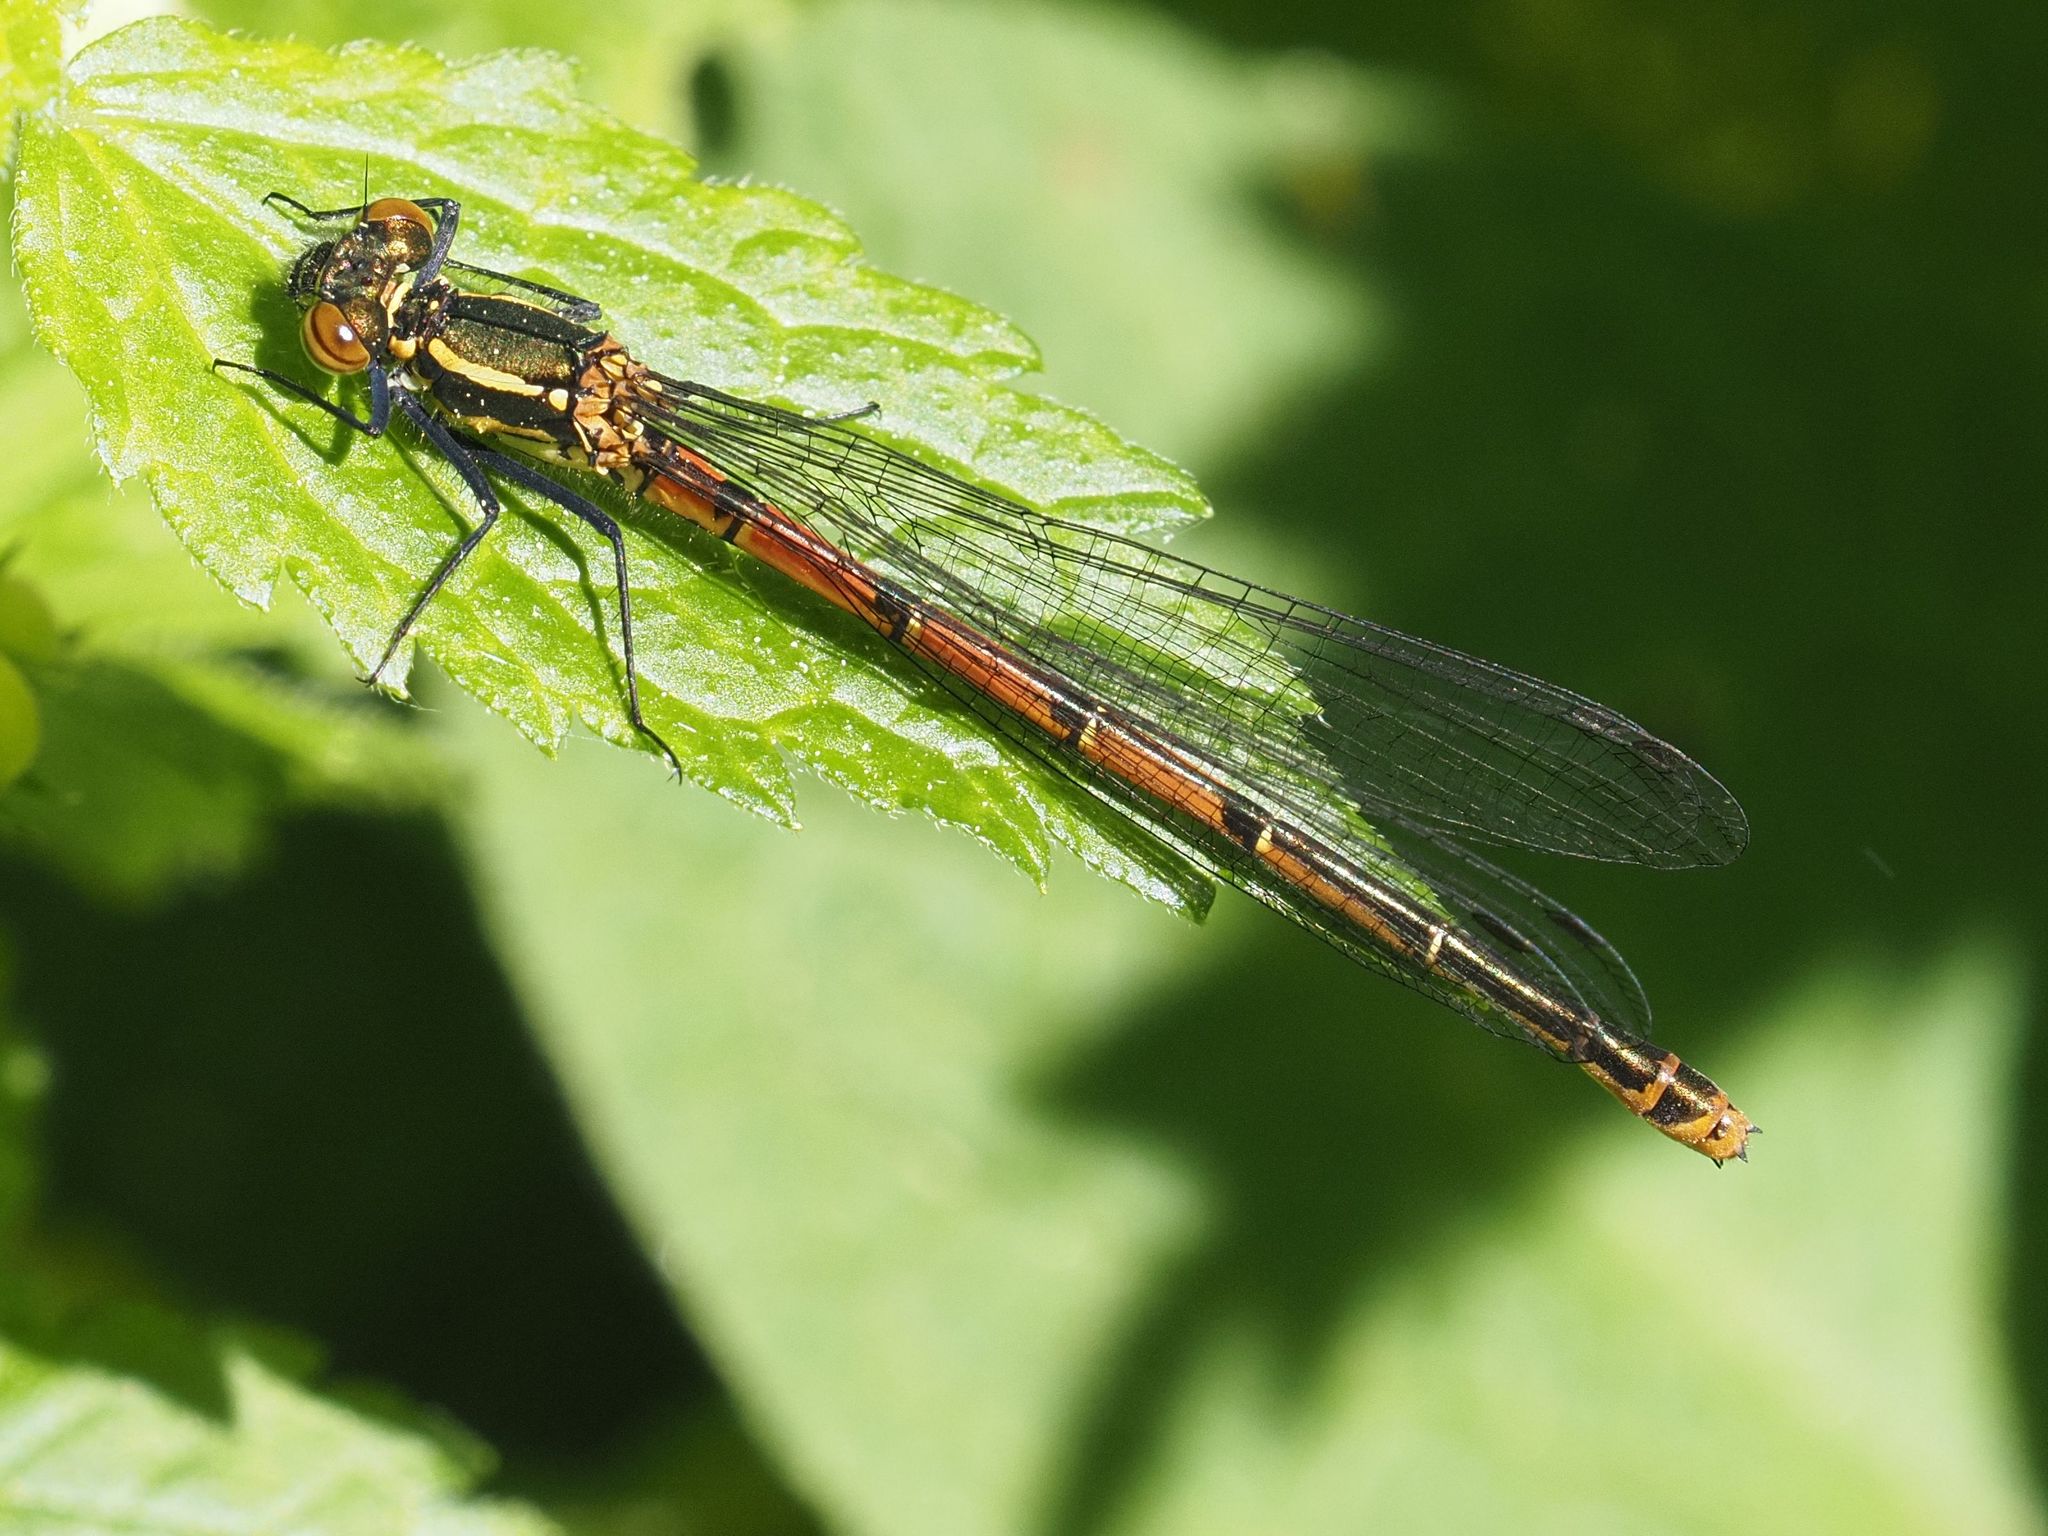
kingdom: Animalia
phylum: Arthropoda
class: Insecta
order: Odonata
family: Coenagrionidae
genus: Pyrrhosoma
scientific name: Pyrrhosoma nymphula
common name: Large red damsel
